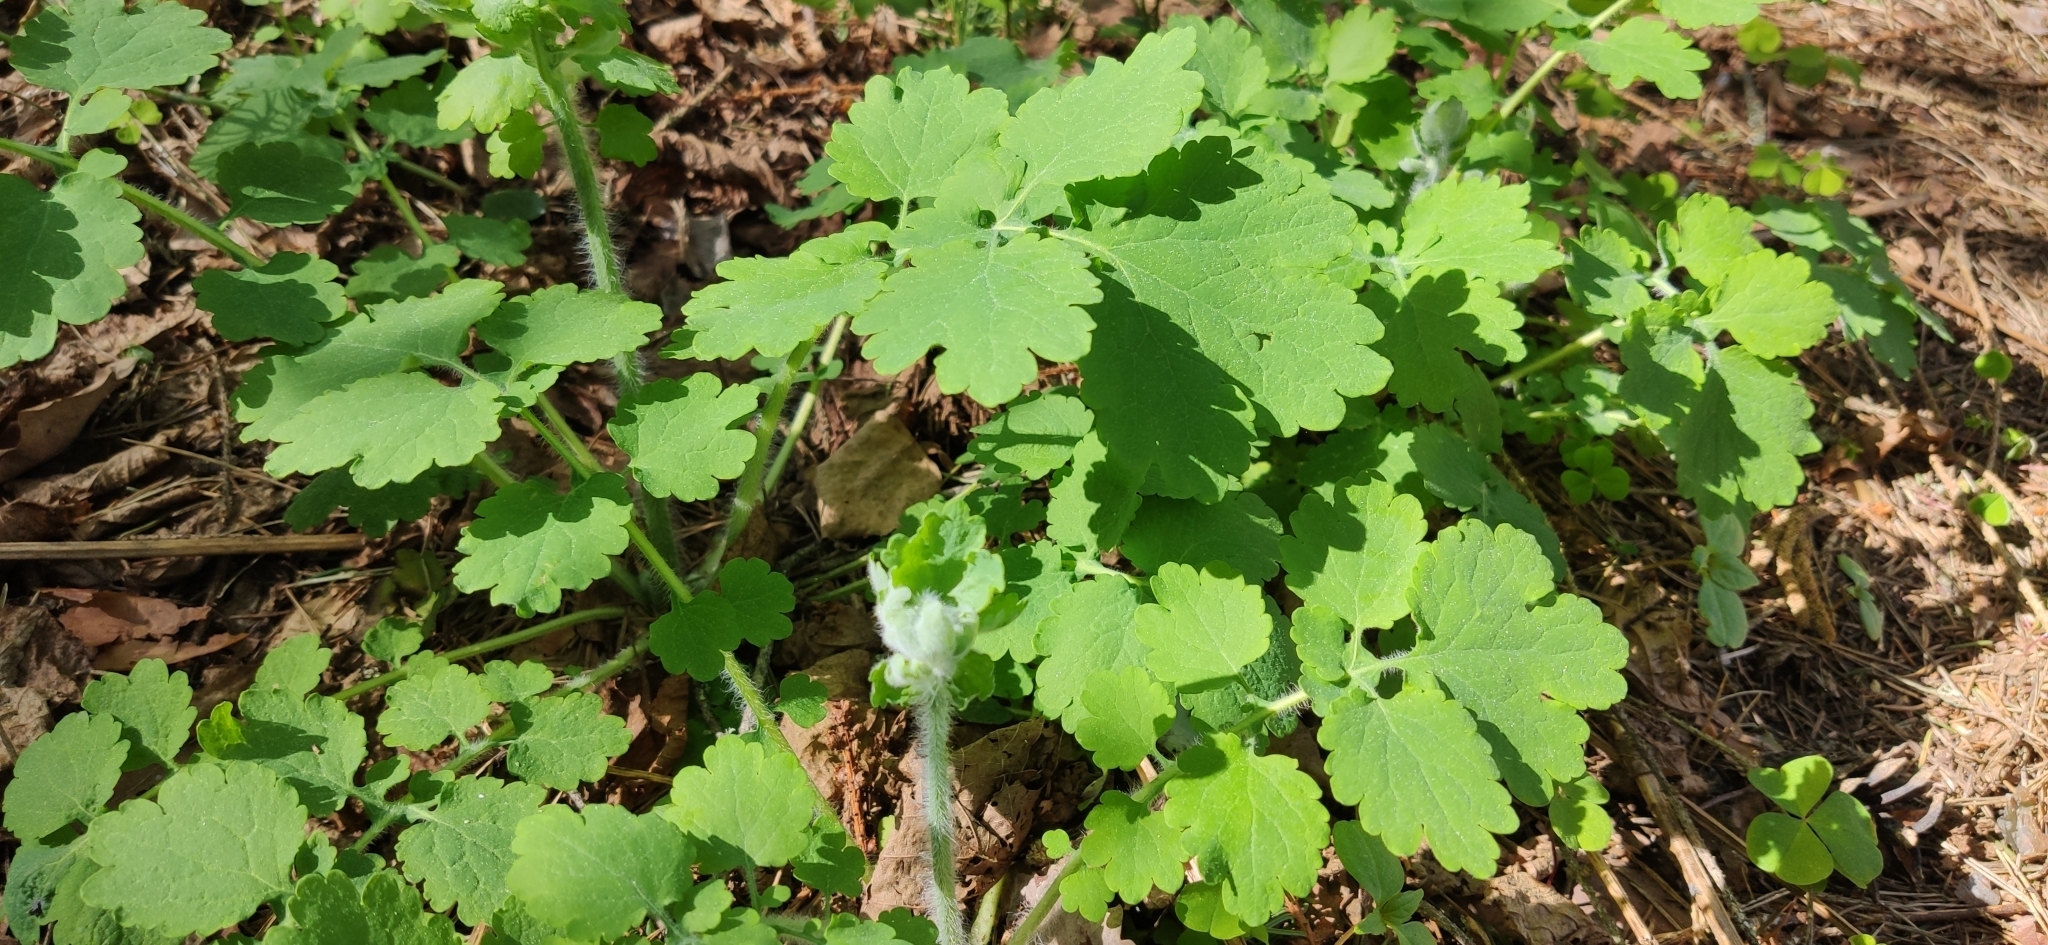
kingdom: Plantae
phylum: Tracheophyta
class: Magnoliopsida
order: Ranunculales
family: Papaveraceae
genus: Chelidonium
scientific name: Chelidonium majus
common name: Greater celandine
